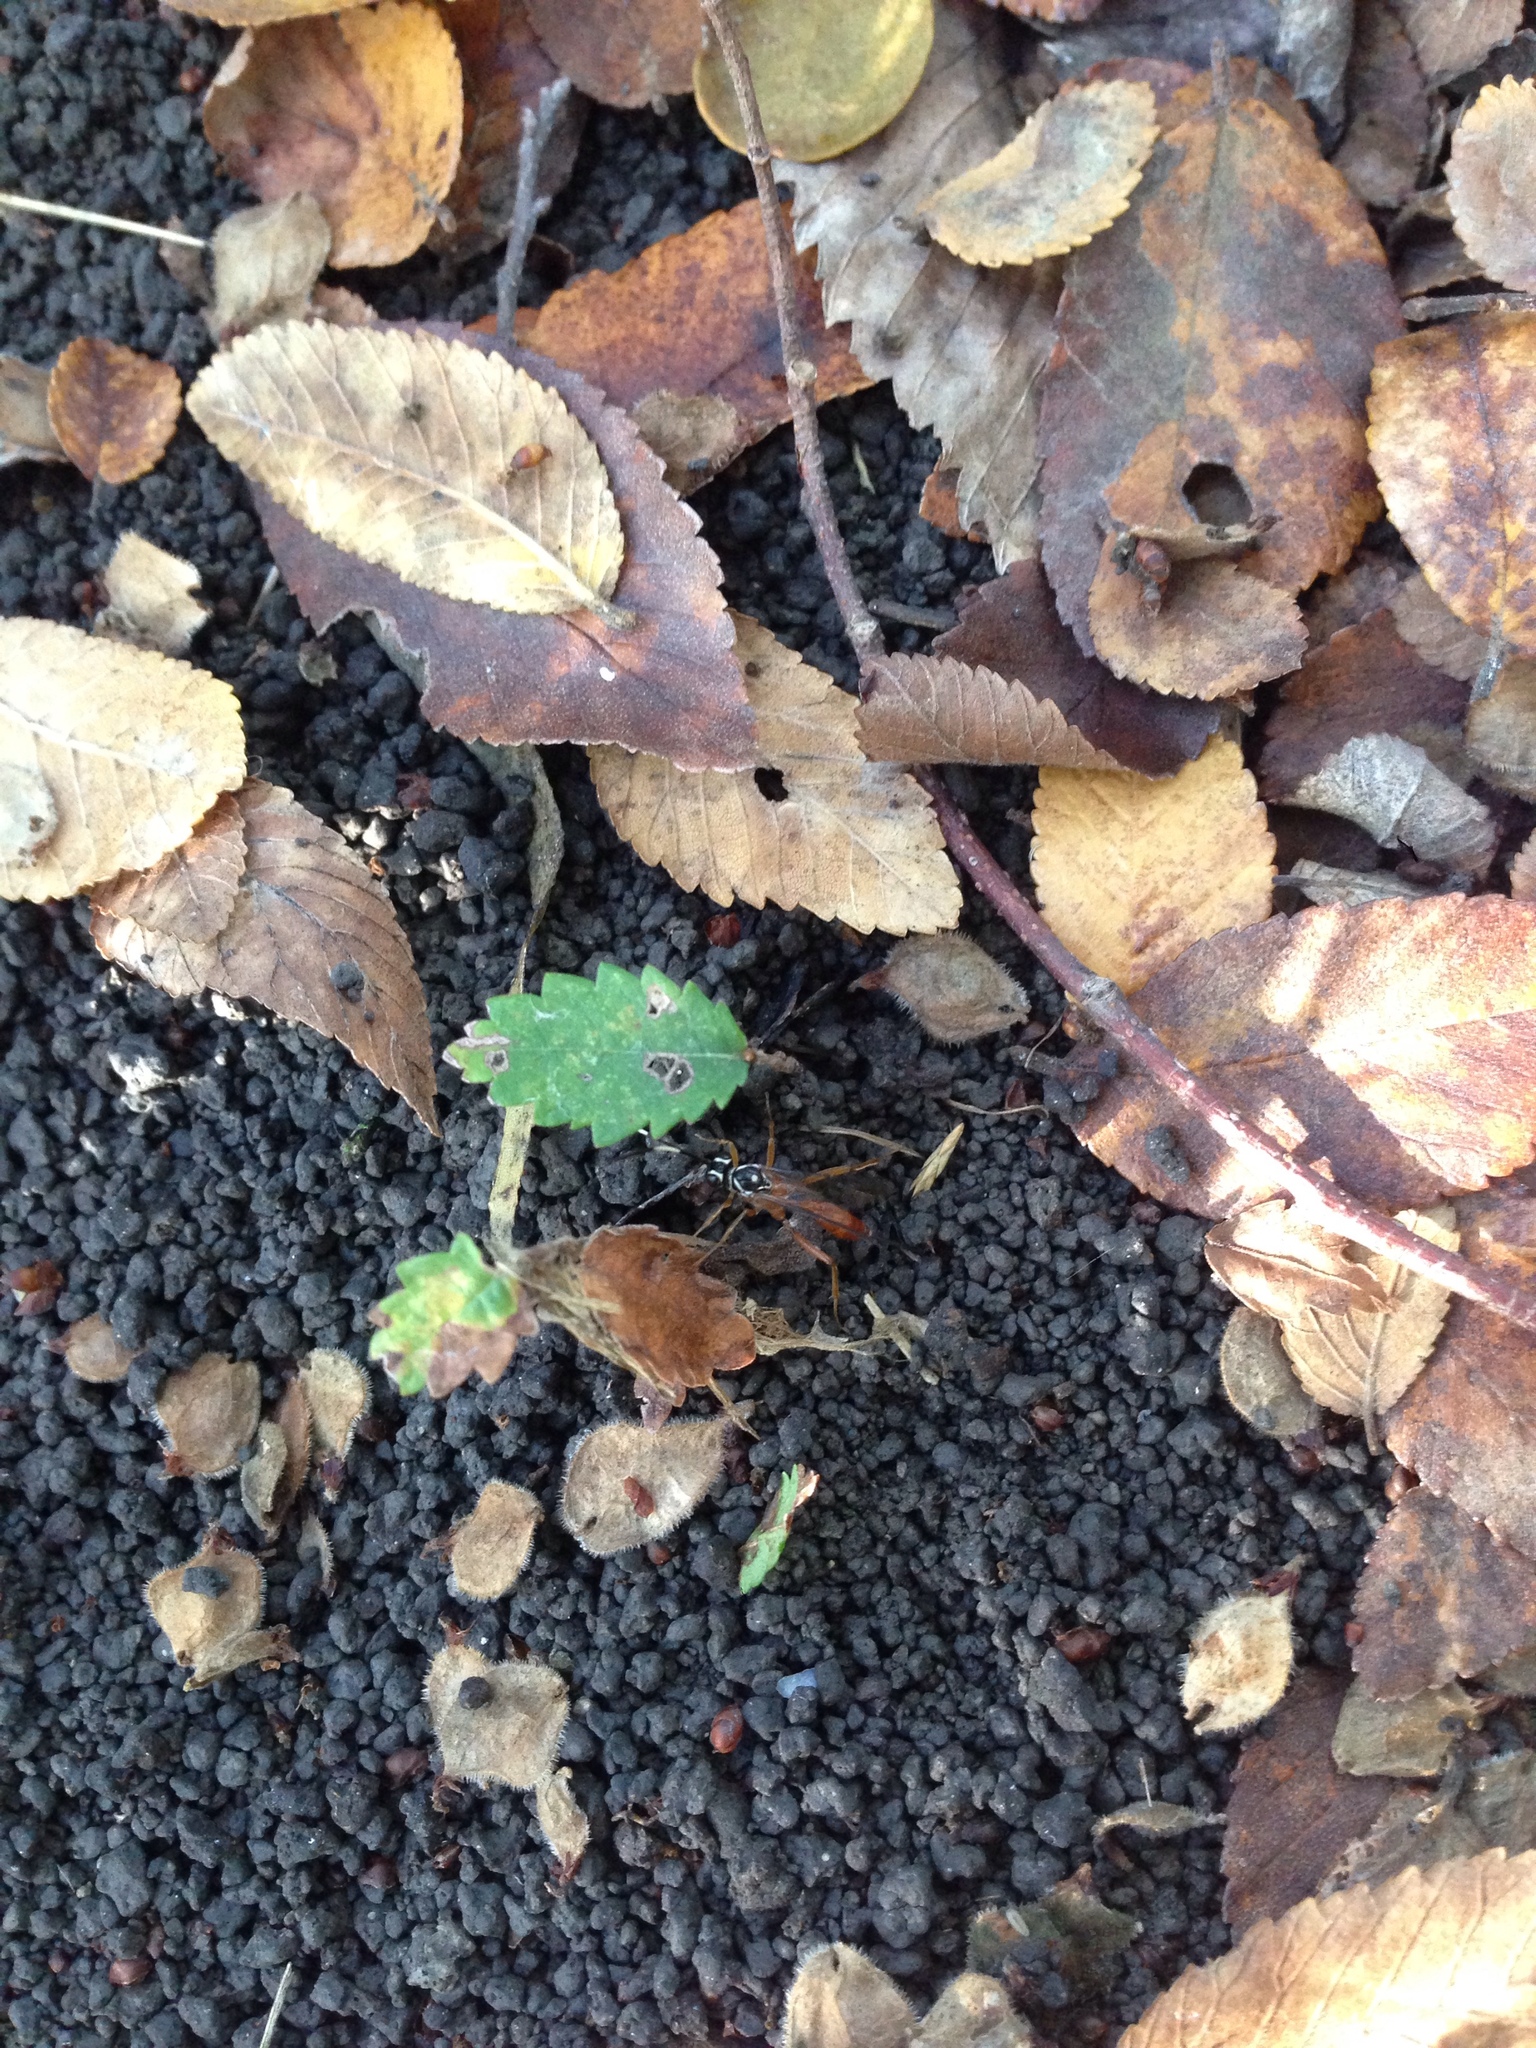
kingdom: Animalia
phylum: Arthropoda
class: Insecta
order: Hymenoptera
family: Ichneumonidae
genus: Mesostenus
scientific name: Mesostenus thoracicus
